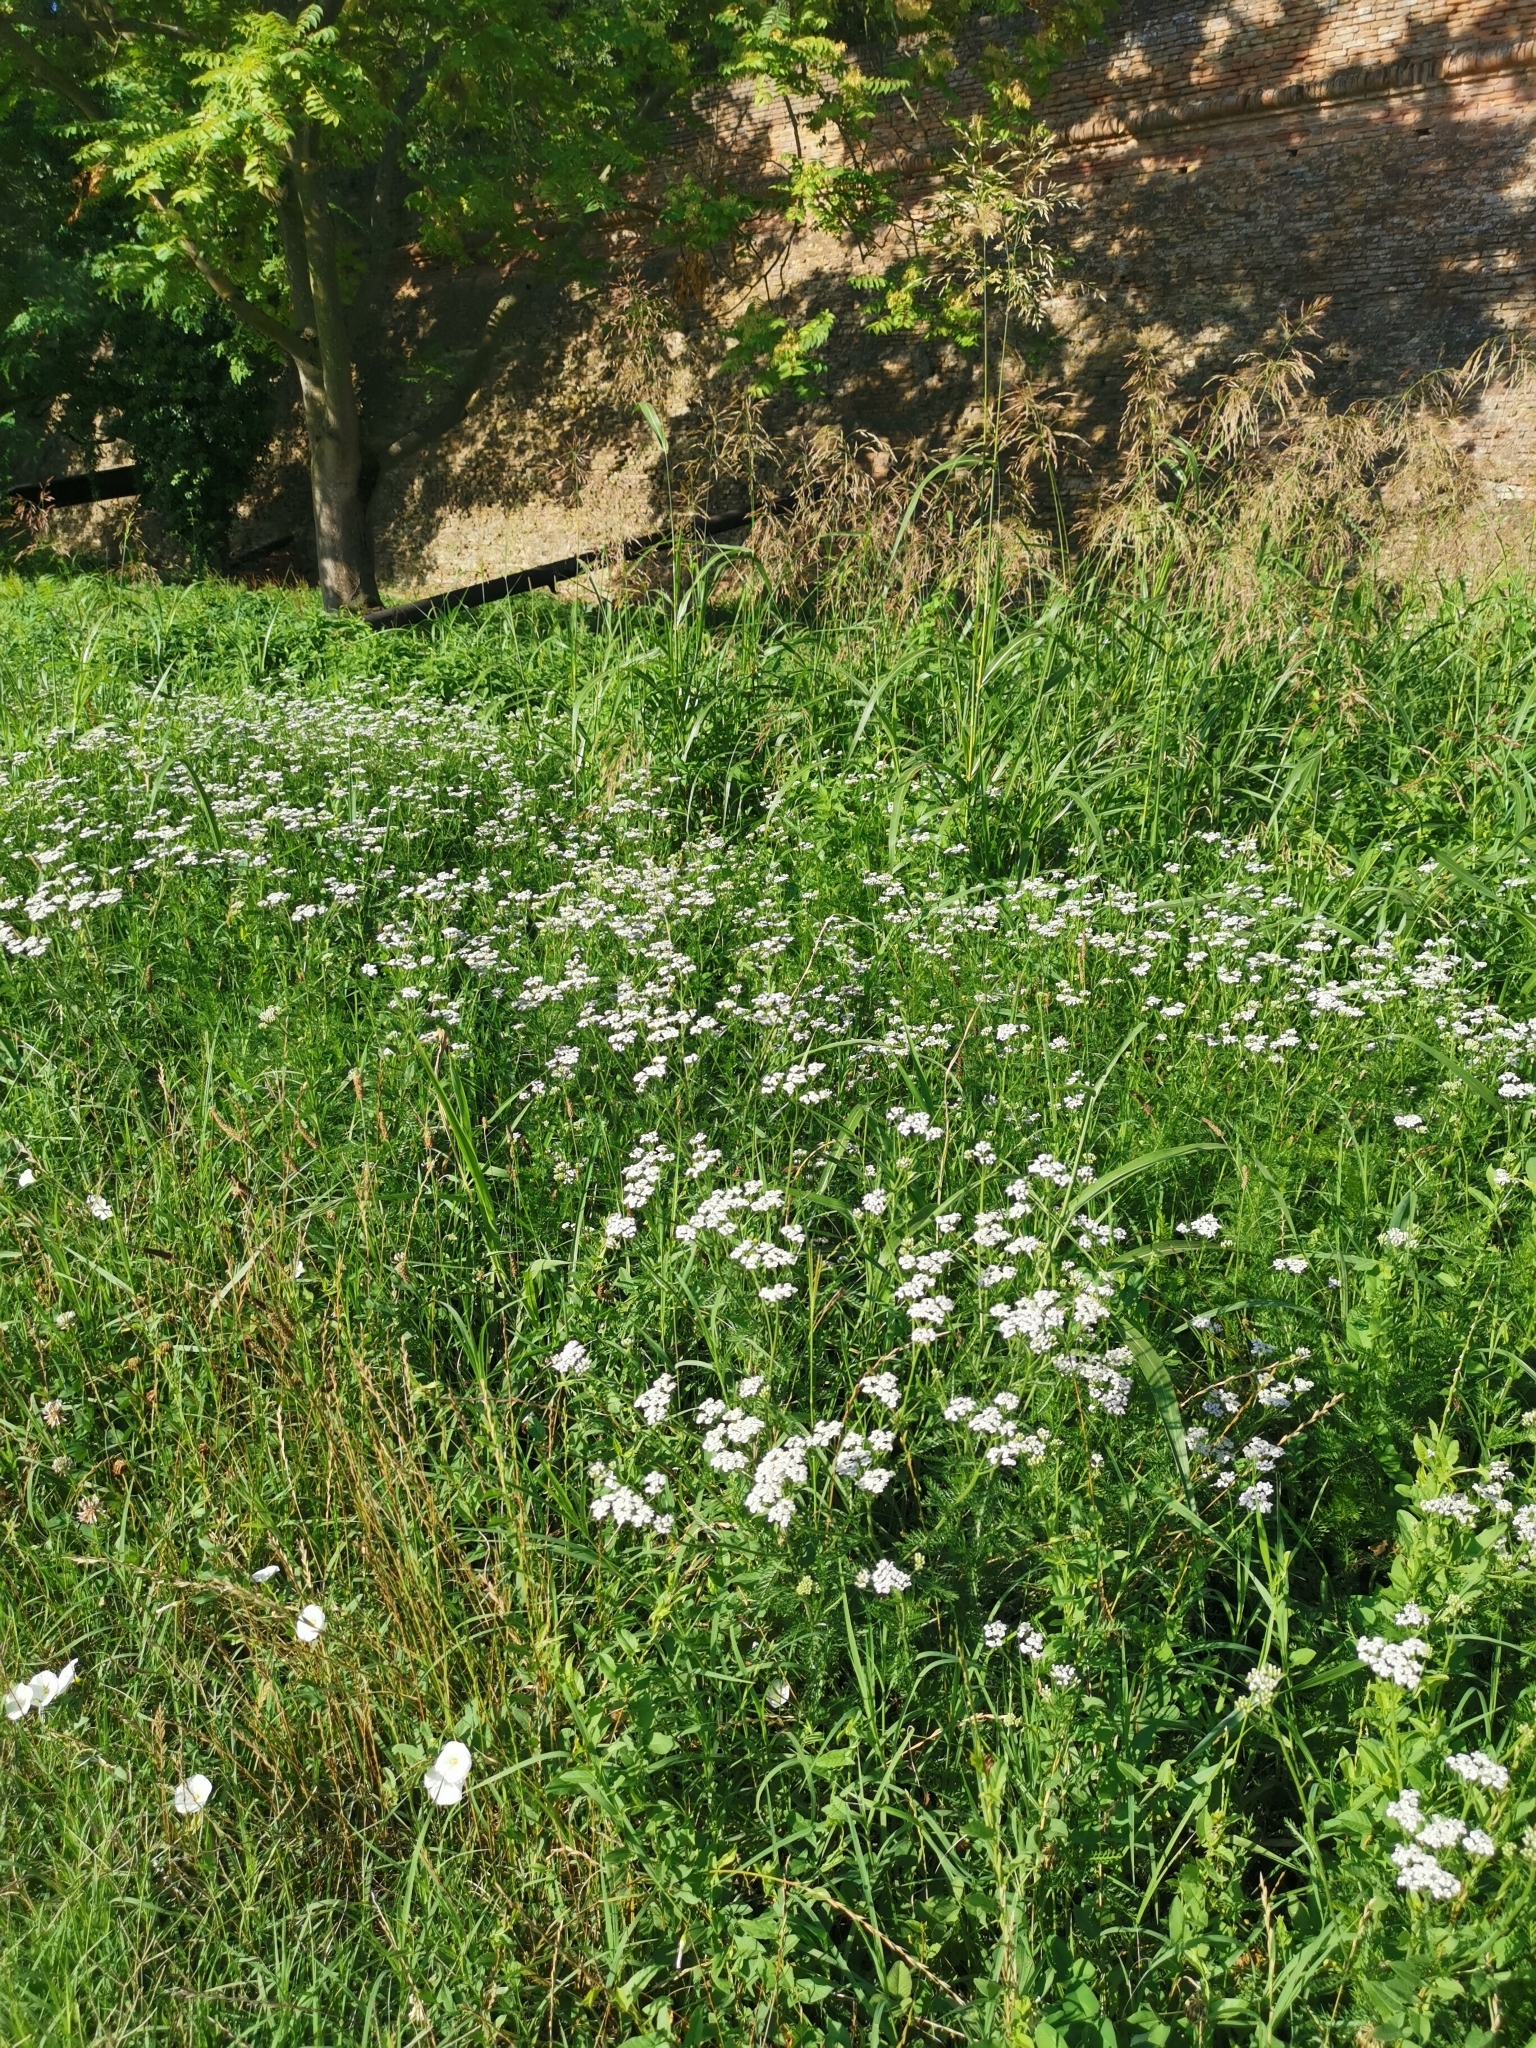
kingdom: Plantae
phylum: Tracheophyta
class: Magnoliopsida
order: Asterales
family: Asteraceae
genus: Achillea
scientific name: Achillea millefolium
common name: Yarrow
